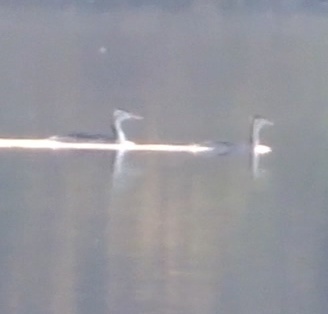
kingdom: Animalia
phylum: Chordata
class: Aves
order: Podicipediformes
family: Podicipedidae
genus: Podiceps
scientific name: Podiceps cristatus
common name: Great crested grebe
